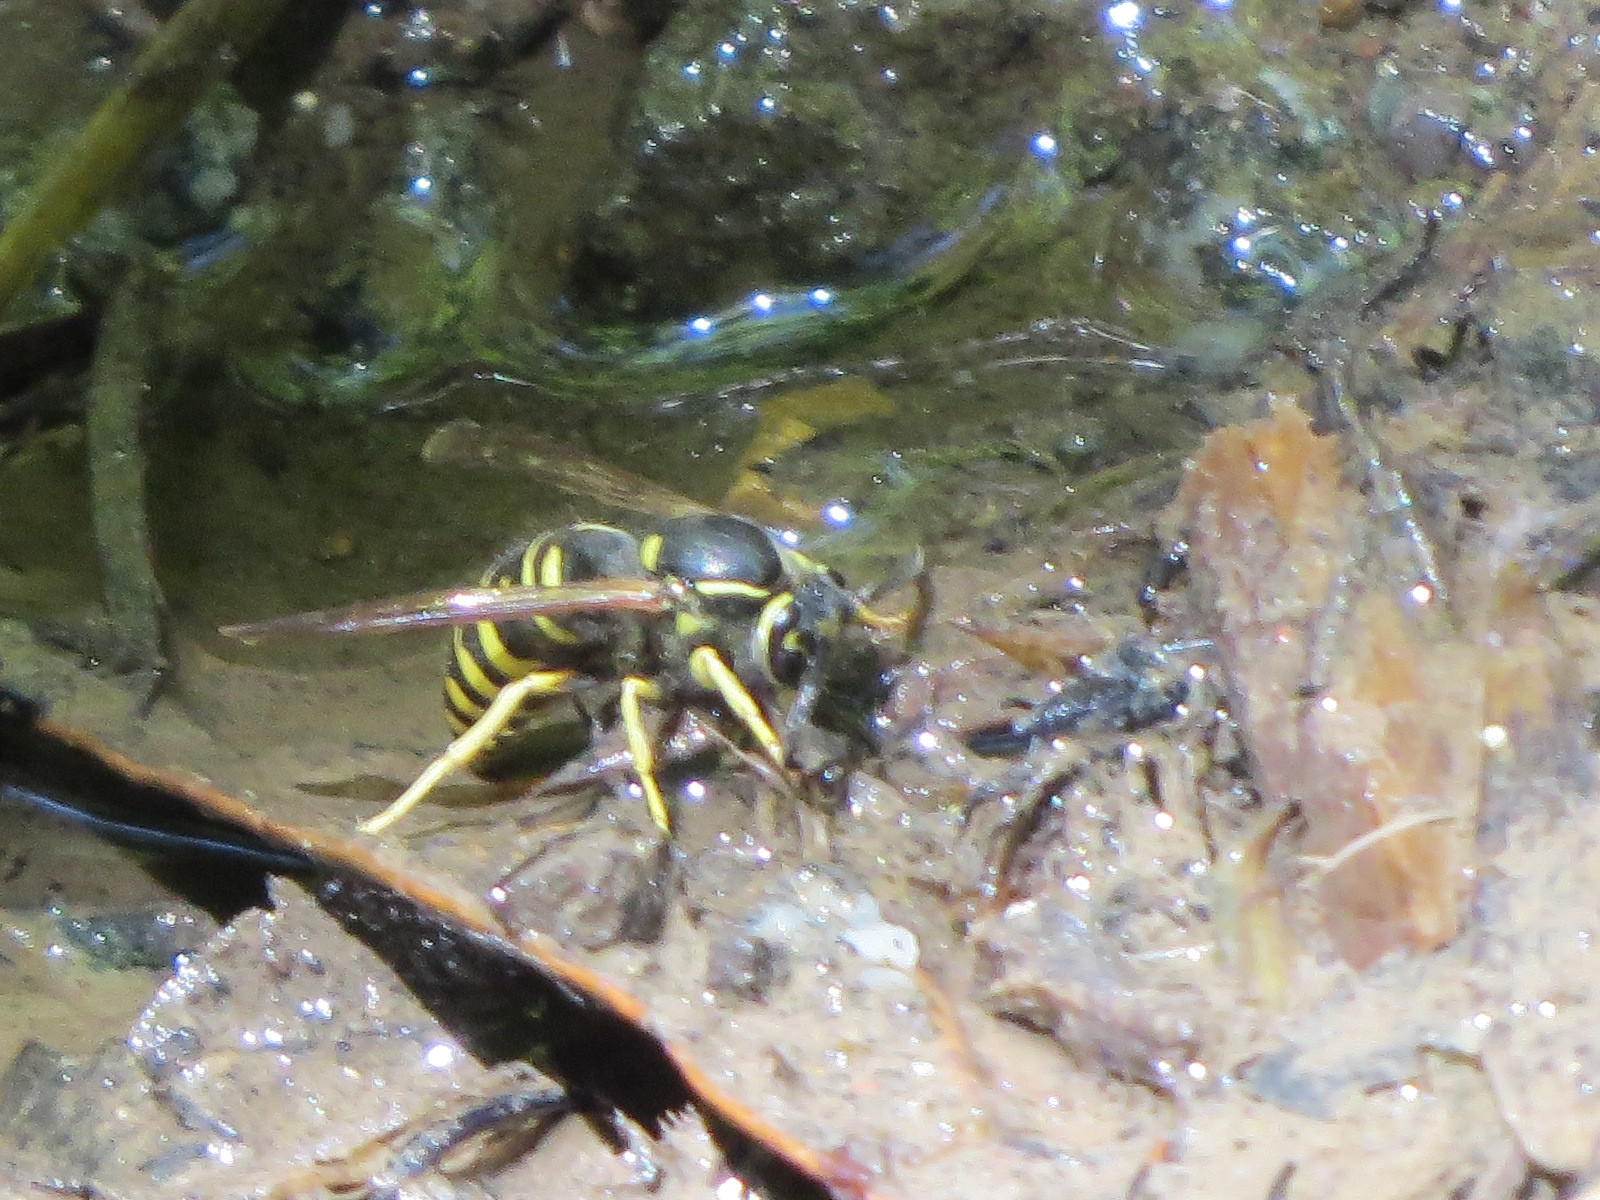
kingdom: Animalia
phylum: Arthropoda
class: Insecta
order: Hymenoptera
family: Vespidae
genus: Vespula
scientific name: Vespula acadica
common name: Forest yellowjacket
